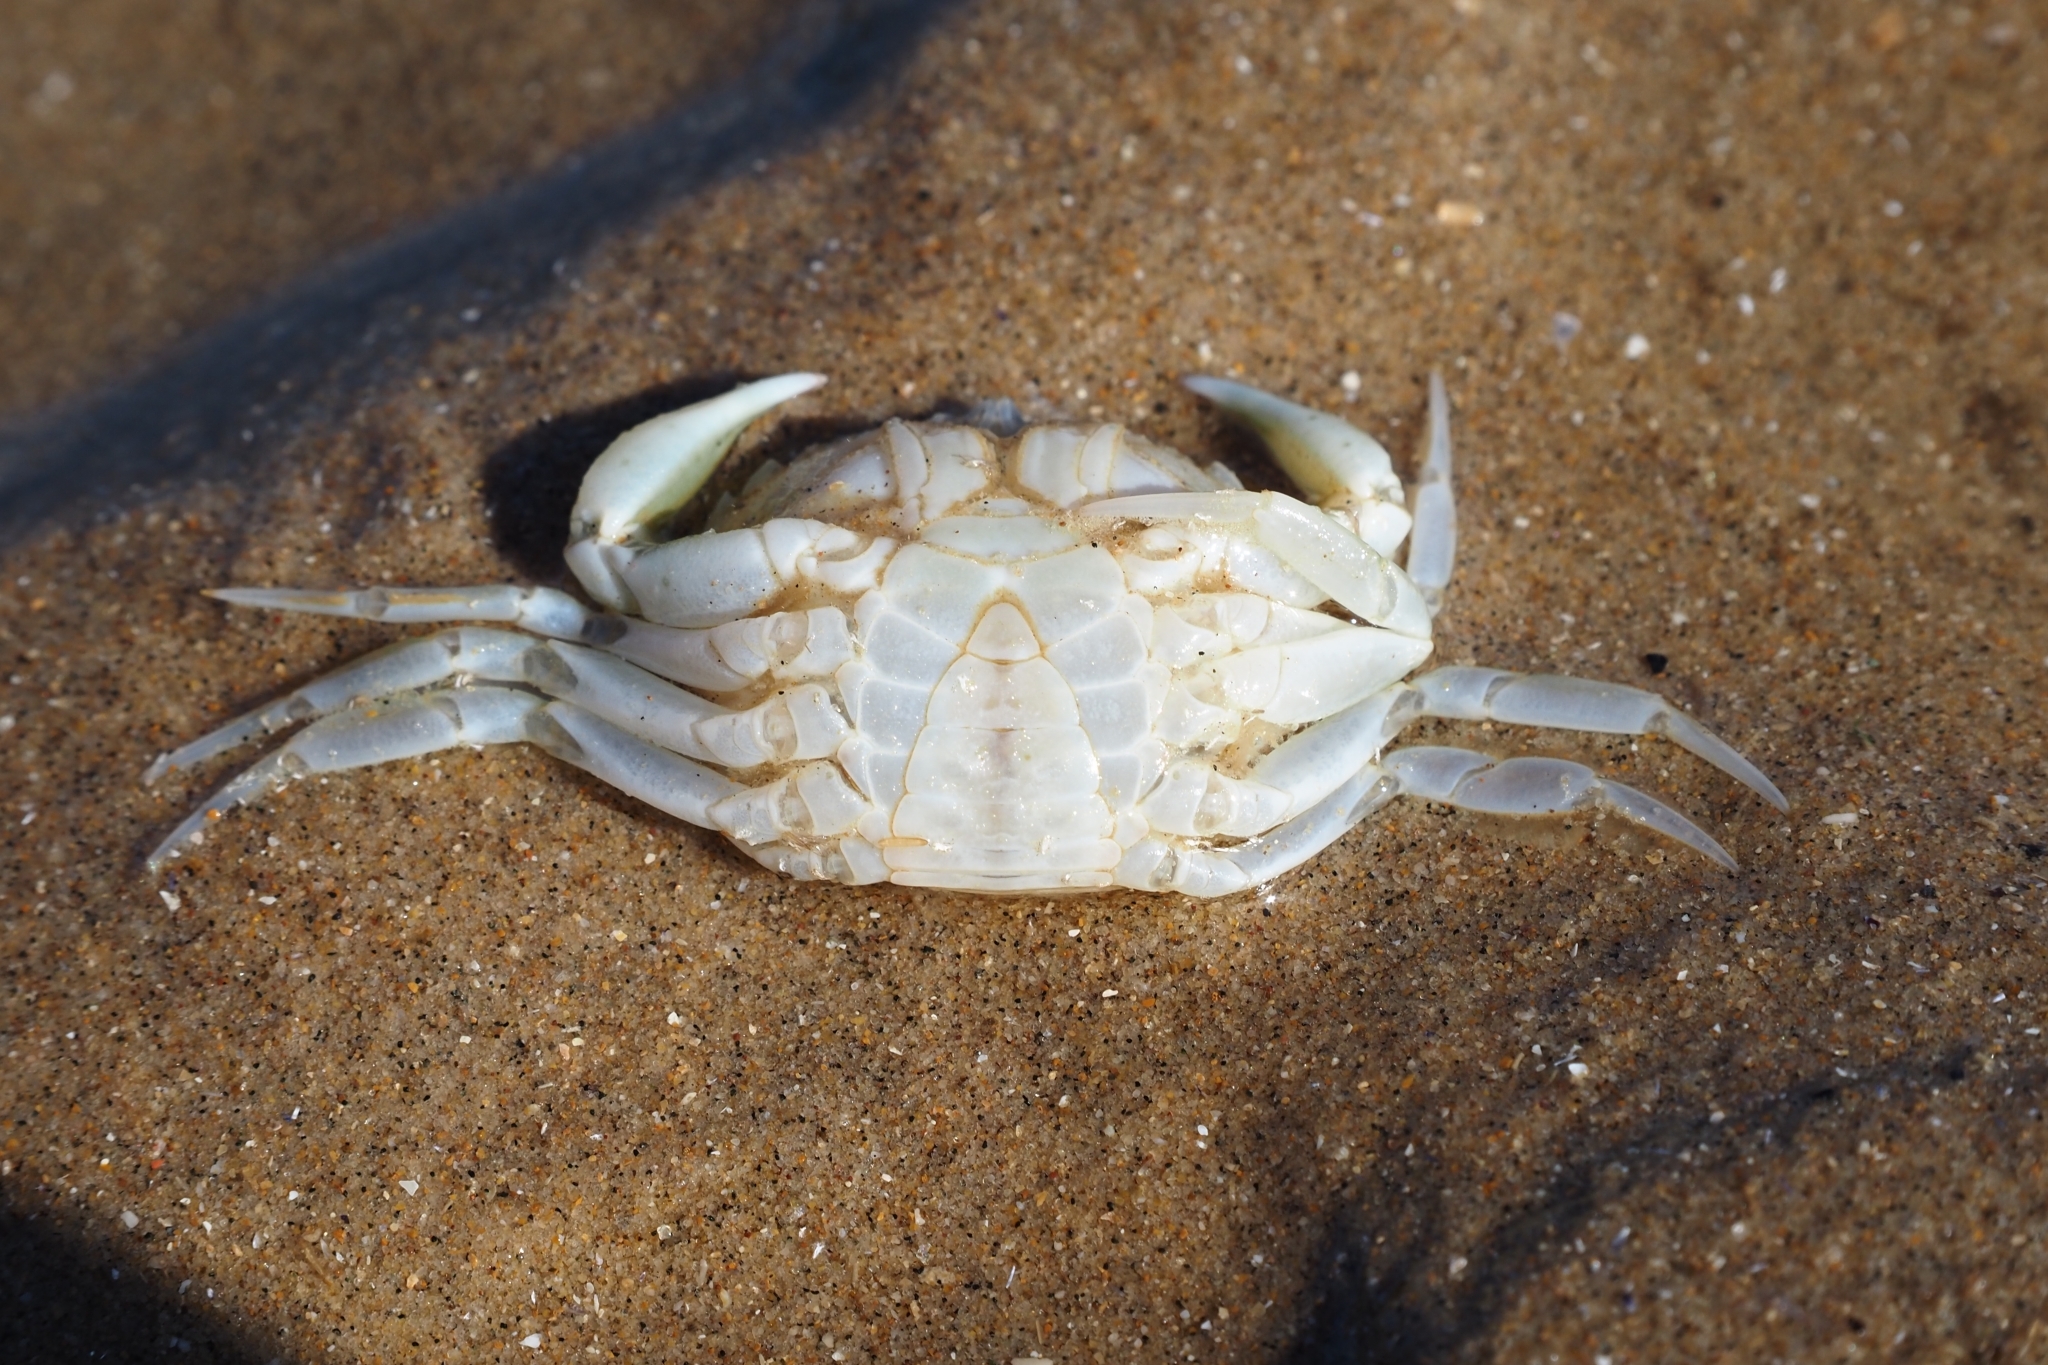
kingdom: Animalia
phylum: Arthropoda
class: Malacostraca
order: Decapoda
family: Carcinidae
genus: Carcinus
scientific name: Carcinus maenas
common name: European green crab
